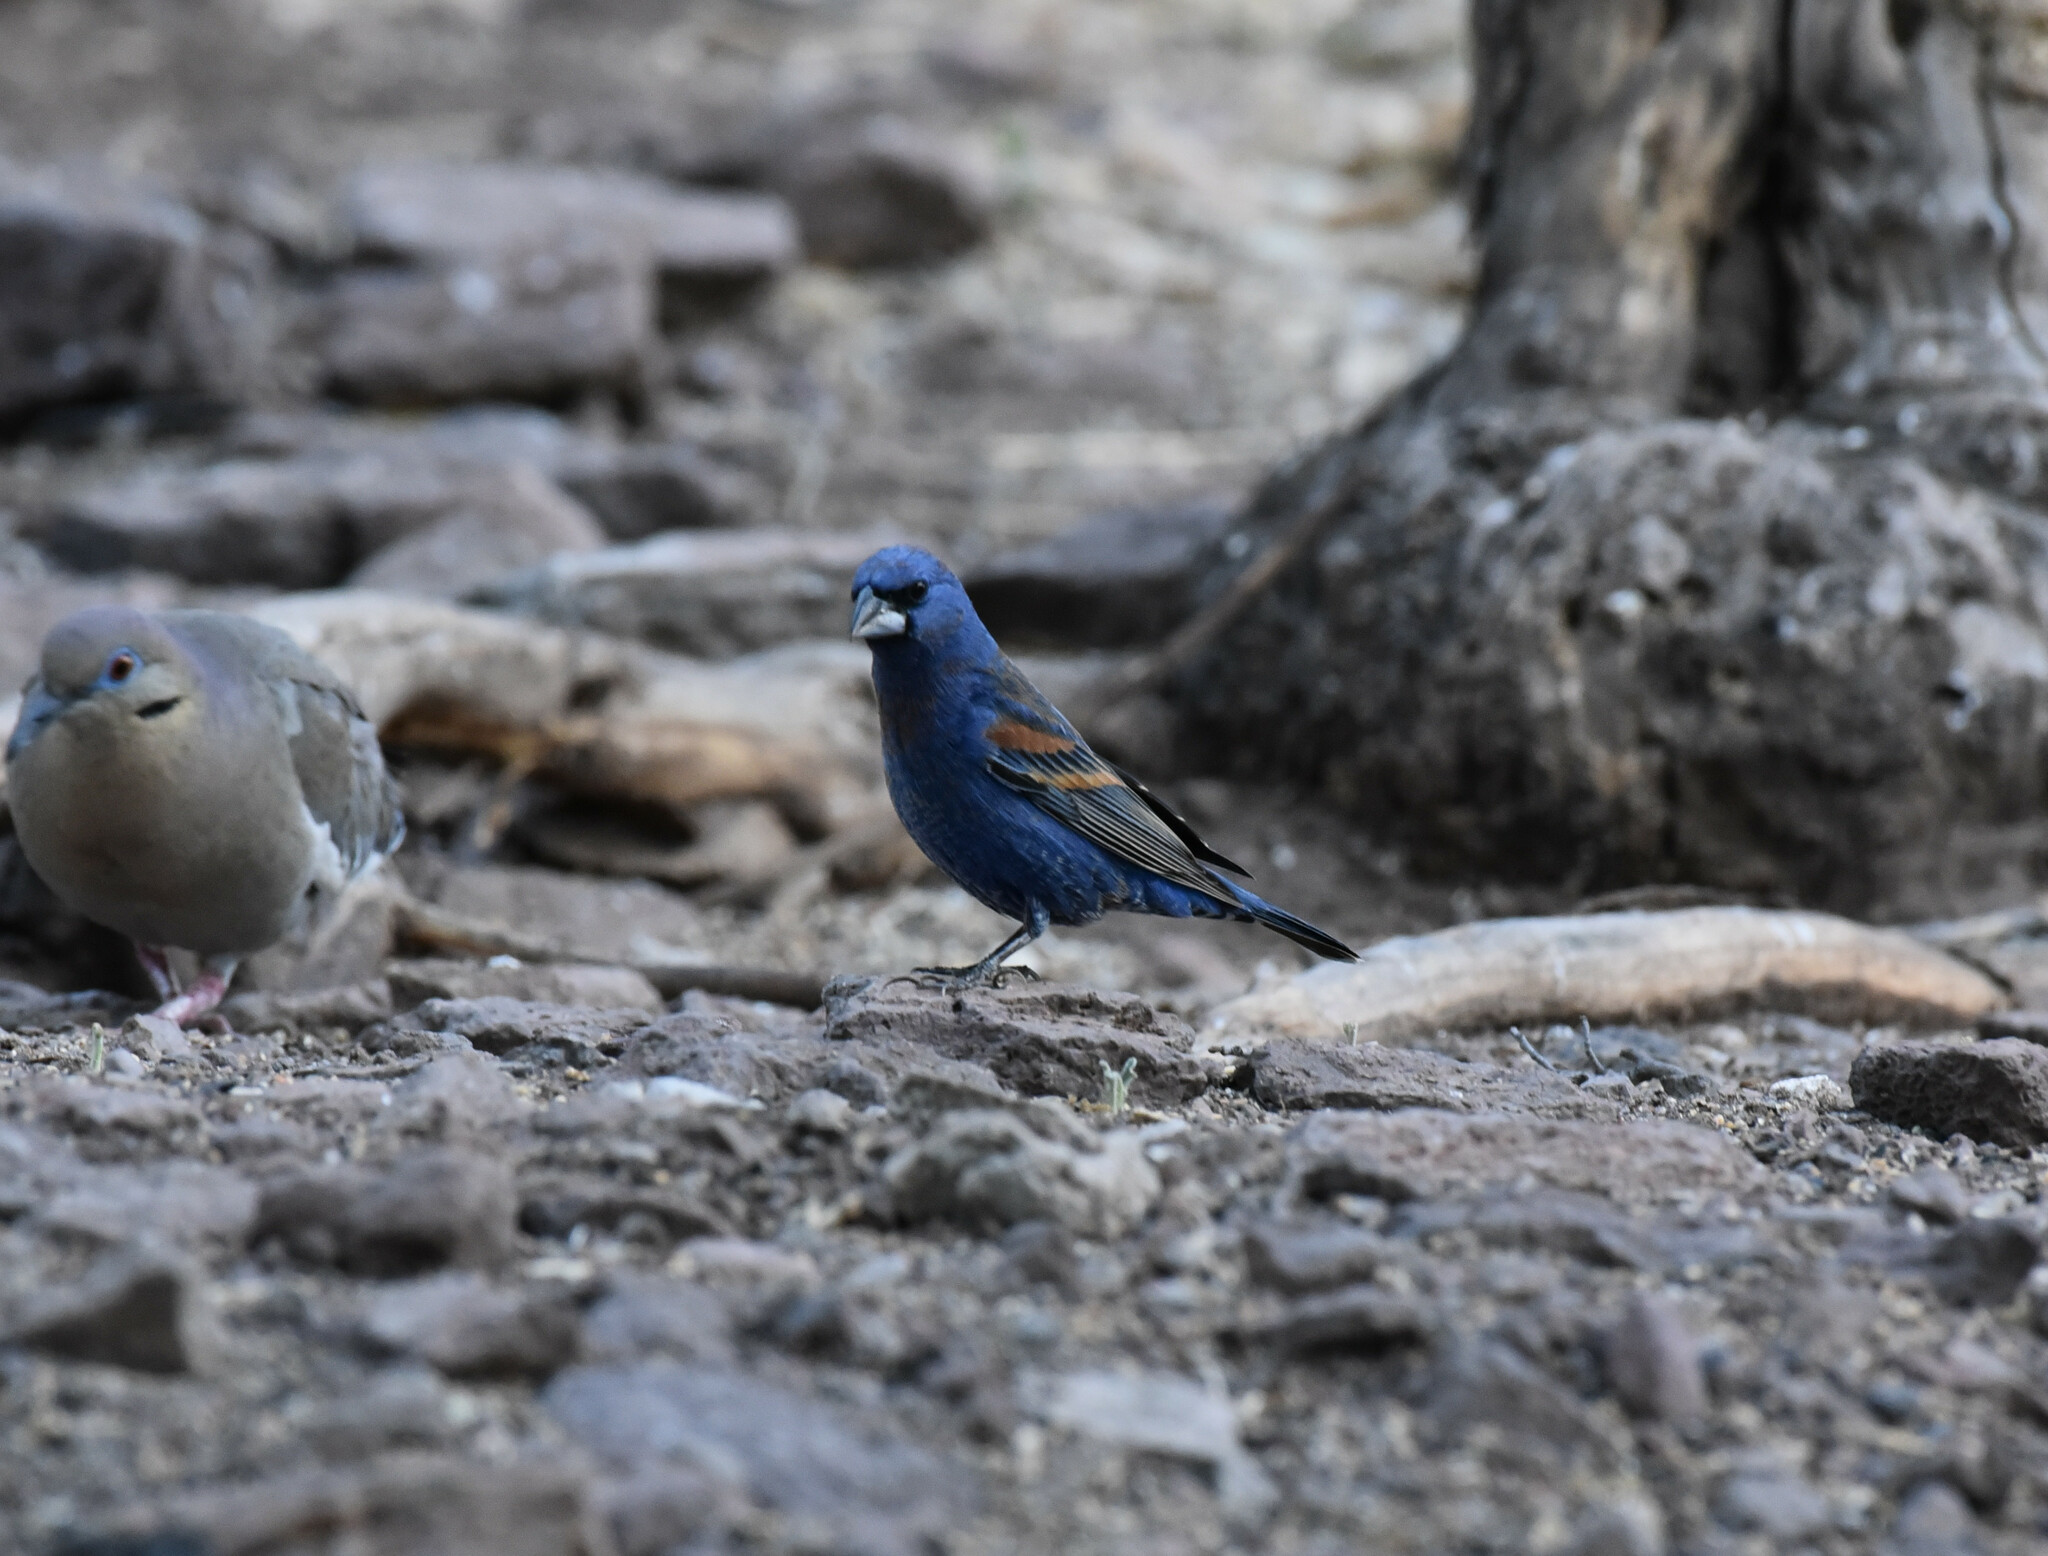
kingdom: Animalia
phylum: Chordata
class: Aves
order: Passeriformes
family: Cardinalidae
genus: Passerina
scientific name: Passerina caerulea
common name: Blue grosbeak
